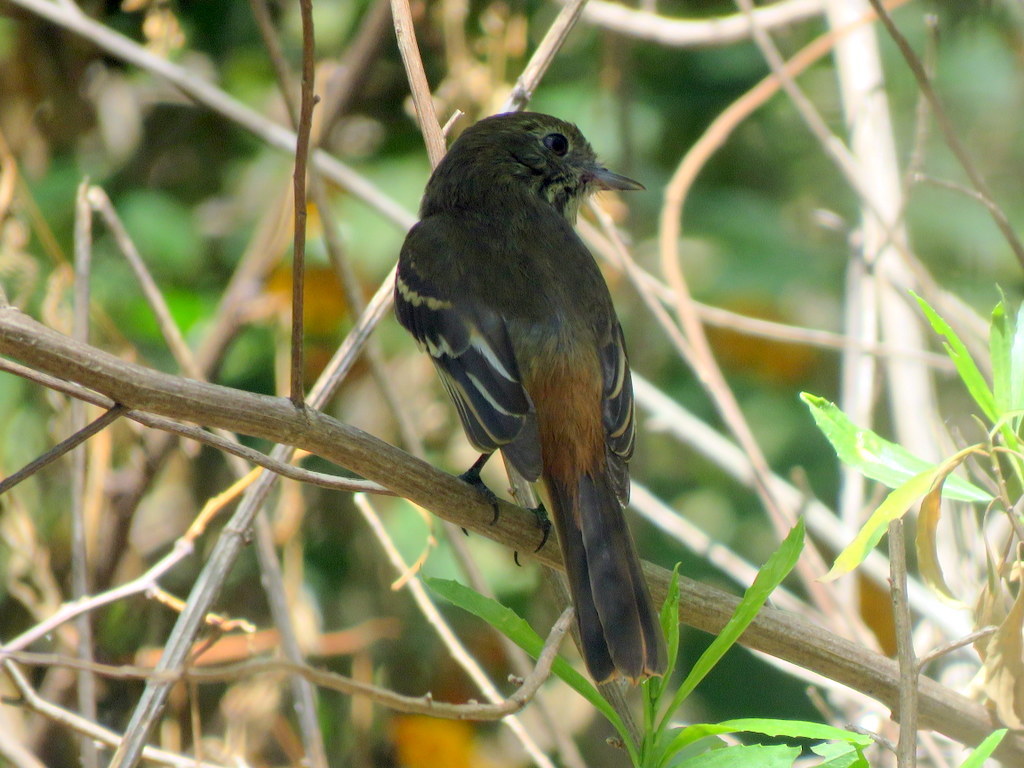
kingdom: Animalia
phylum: Chordata
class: Aves
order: Passeriformes
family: Tyrannidae
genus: Knipolegus
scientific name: Knipolegus cyanirostris
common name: Blue-billed black tyrant
